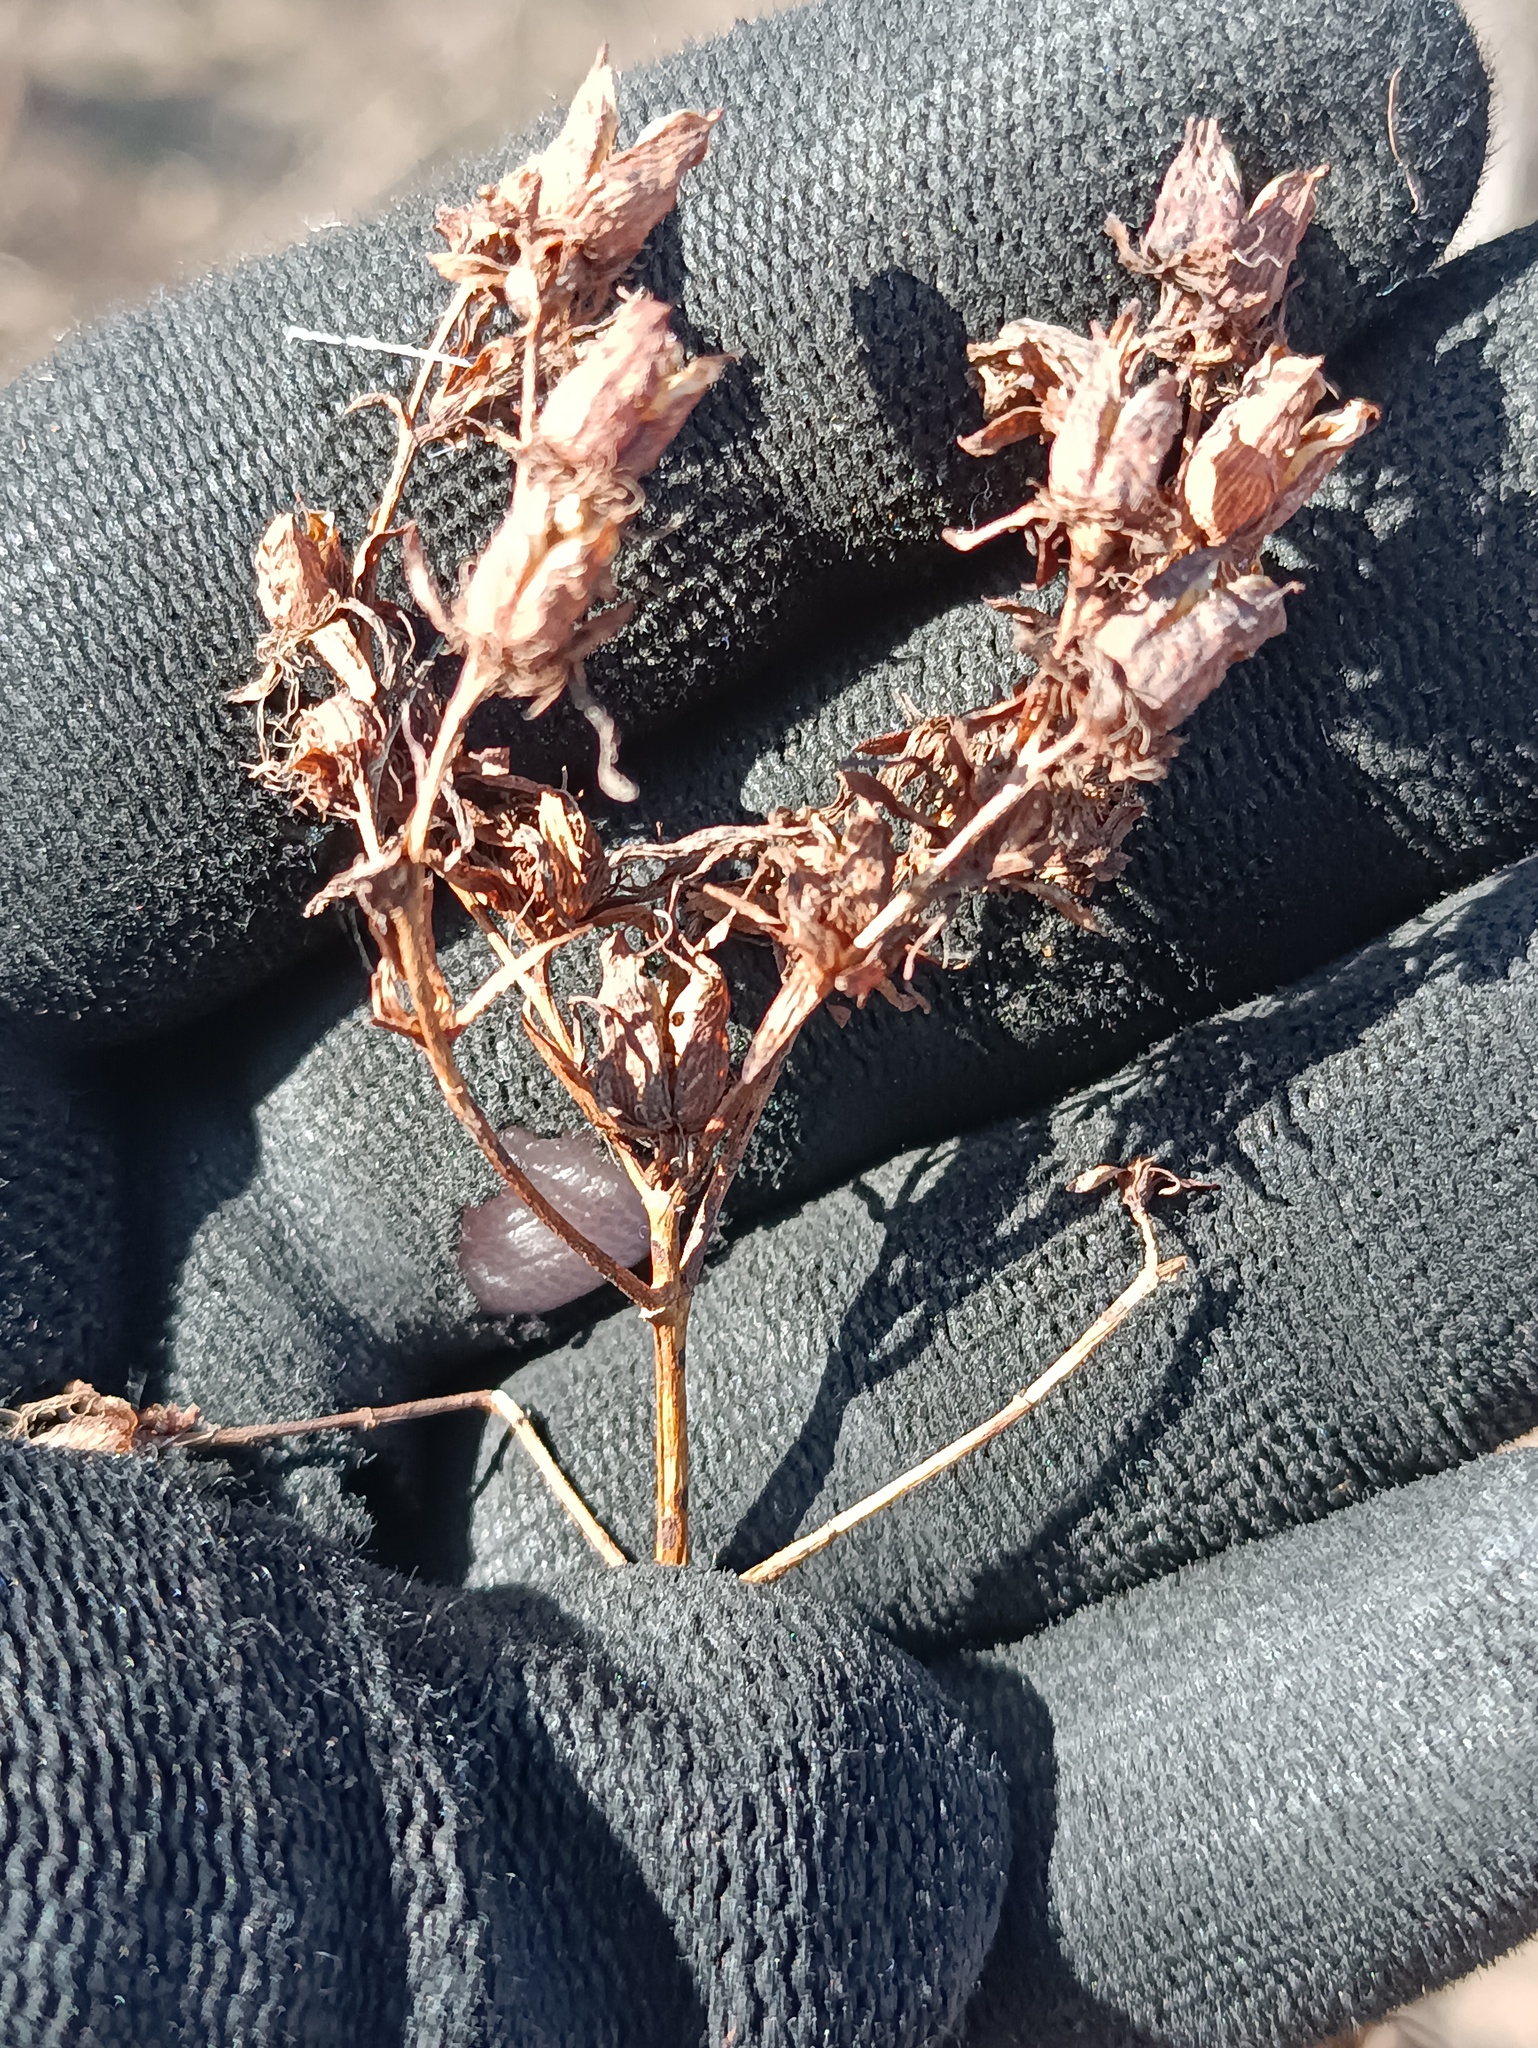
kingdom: Plantae
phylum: Tracheophyta
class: Magnoliopsida
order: Malpighiales
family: Hypericaceae
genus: Hypericum
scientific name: Hypericum perforatum
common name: Common st. johnswort
